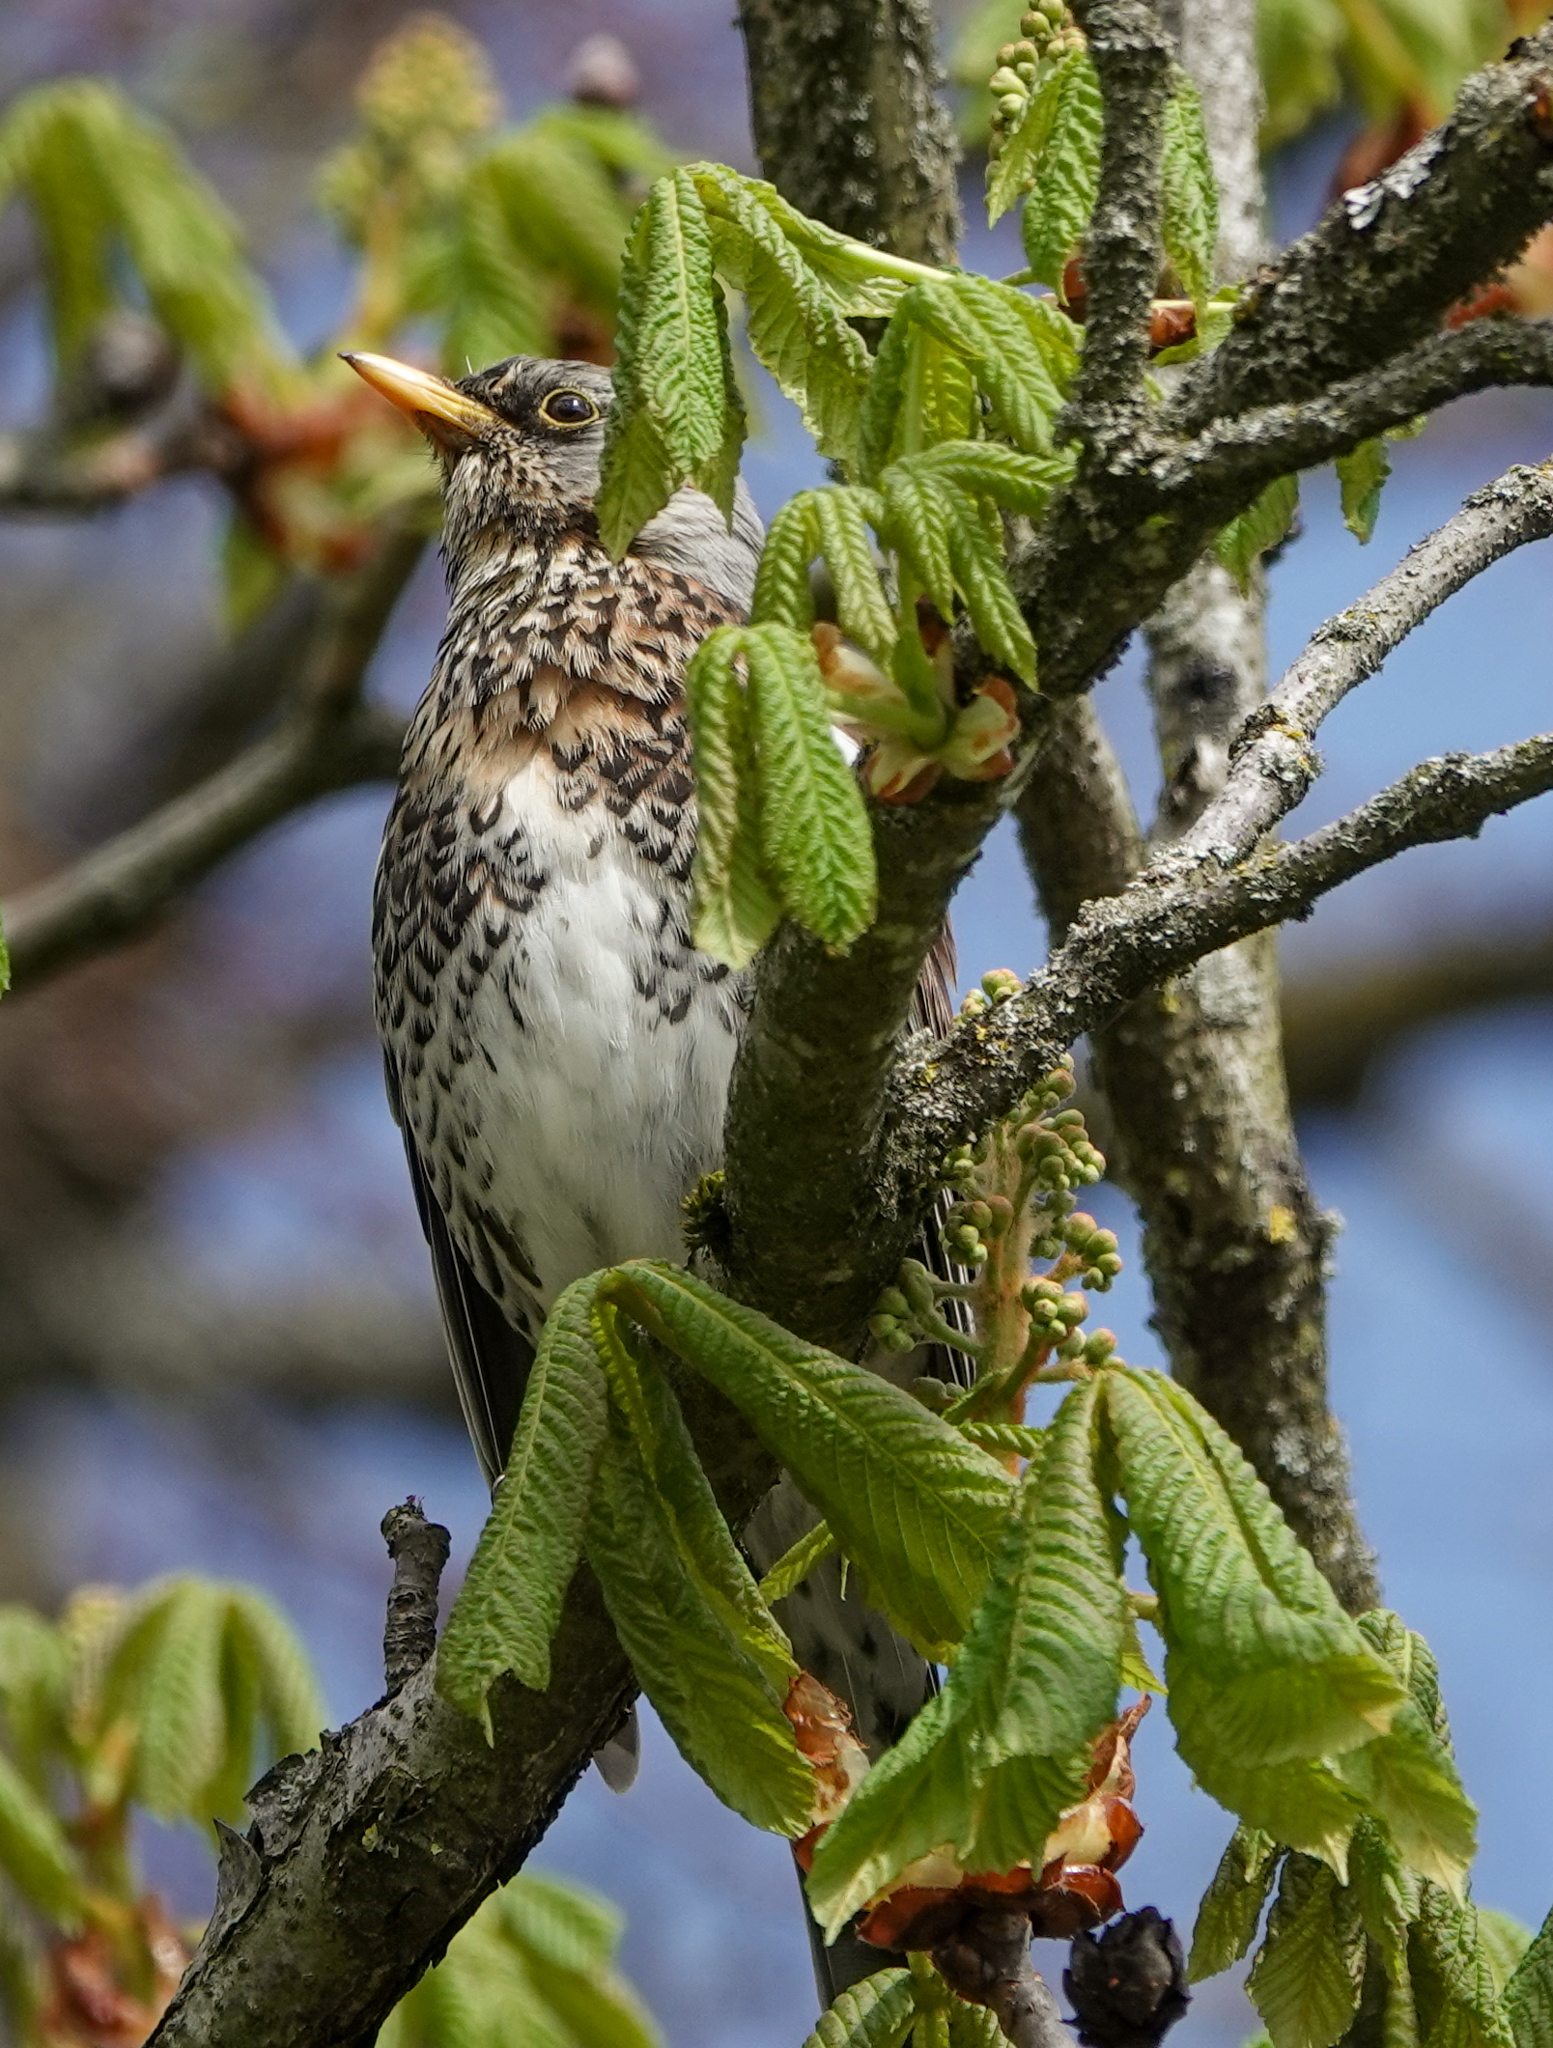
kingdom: Animalia
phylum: Chordata
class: Aves
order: Passeriformes
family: Turdidae
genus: Turdus
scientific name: Turdus pilaris
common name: Fieldfare
